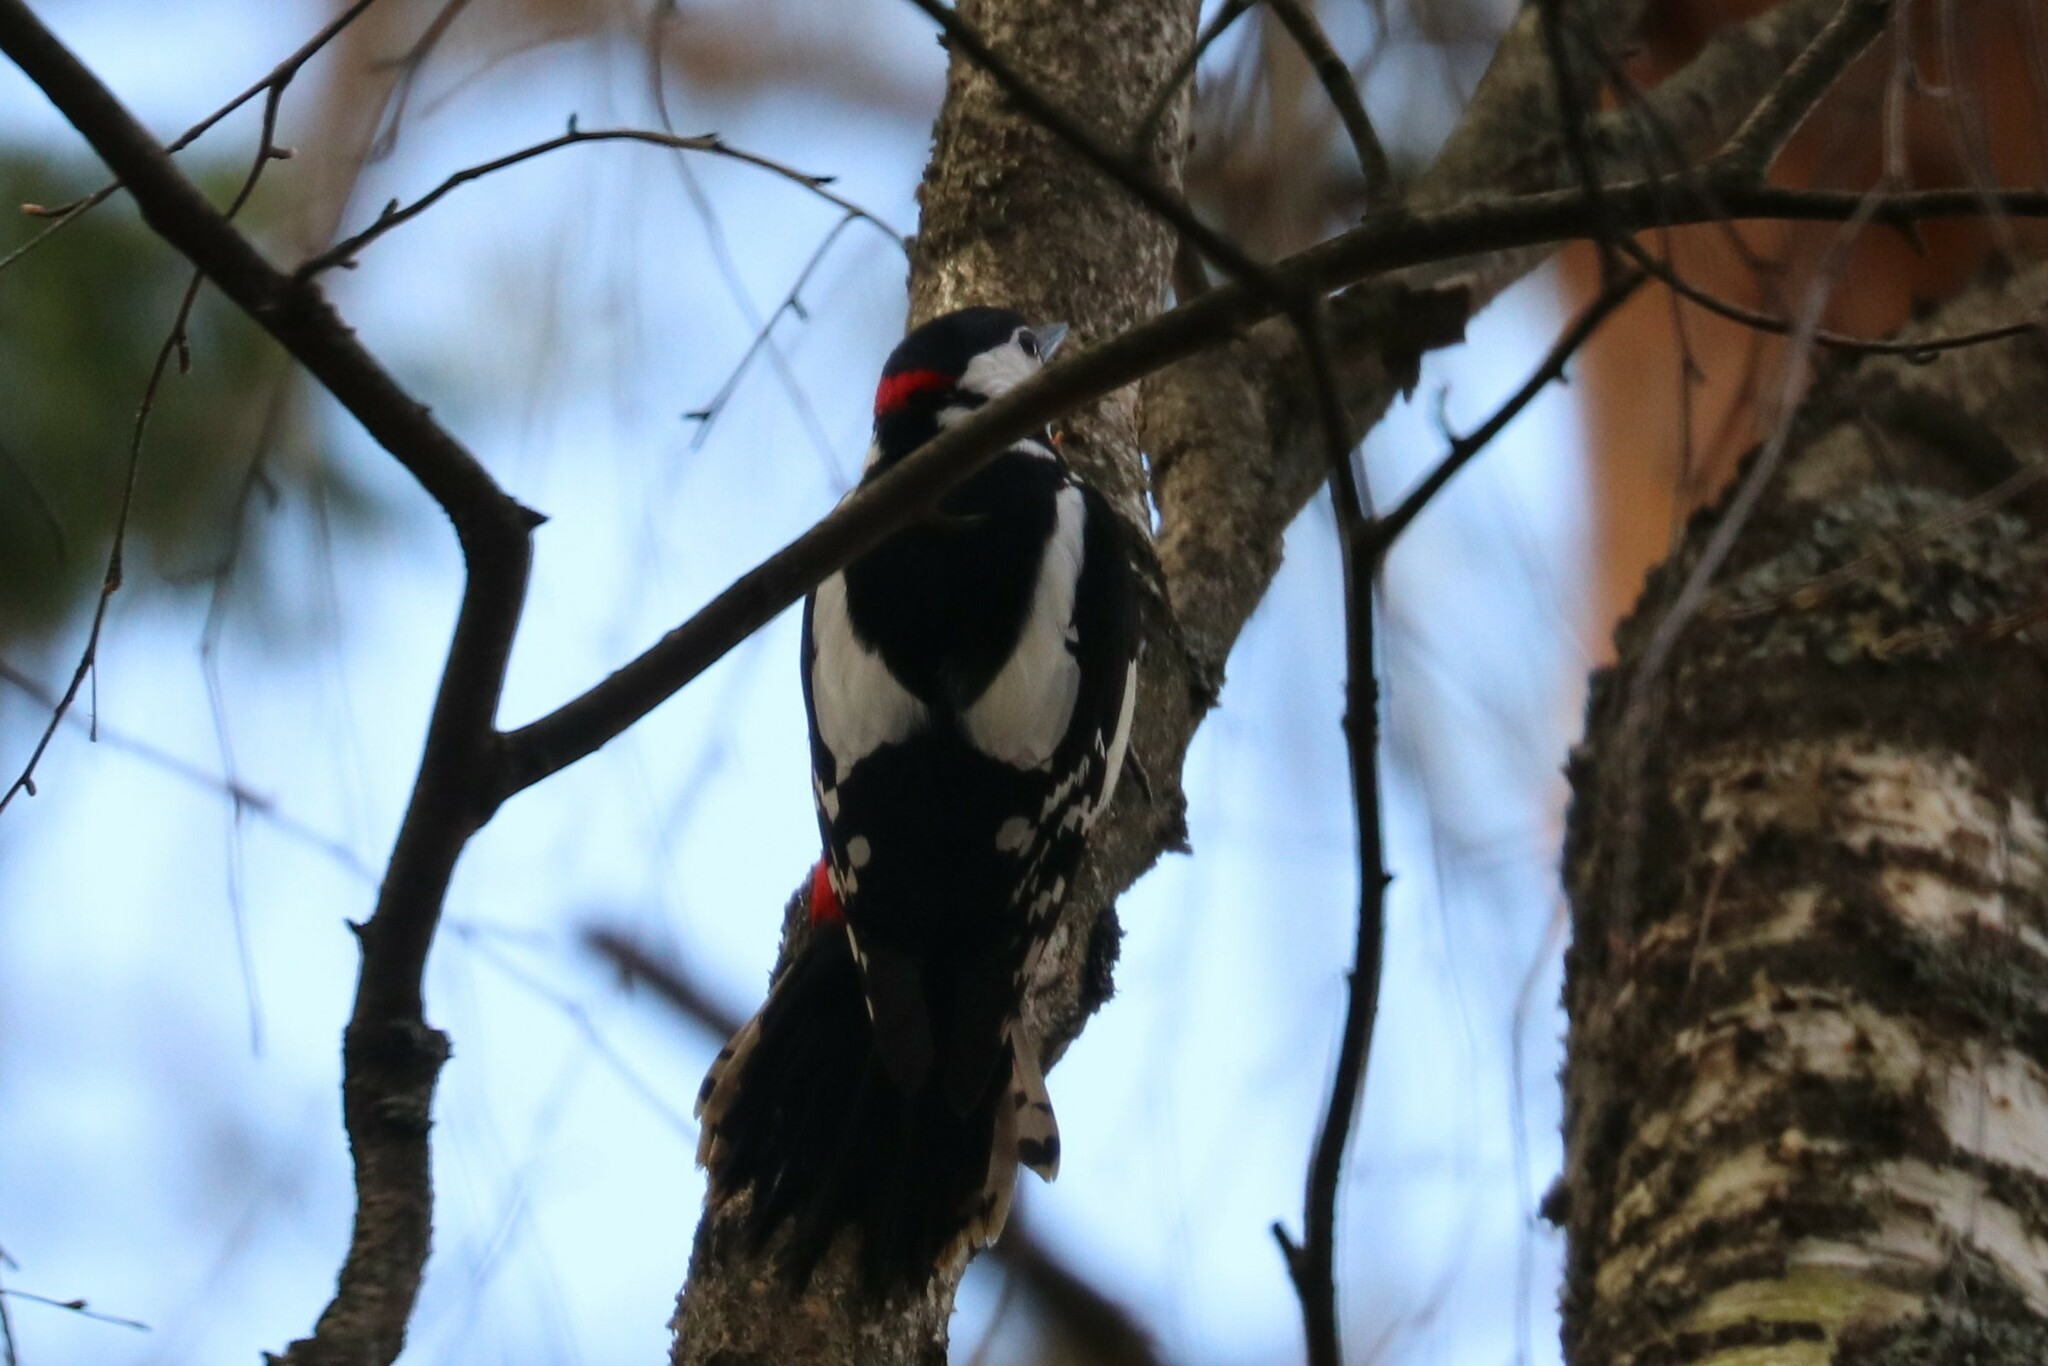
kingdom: Animalia
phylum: Chordata
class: Aves
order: Piciformes
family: Picidae
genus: Dendrocopos
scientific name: Dendrocopos major
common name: Great spotted woodpecker
